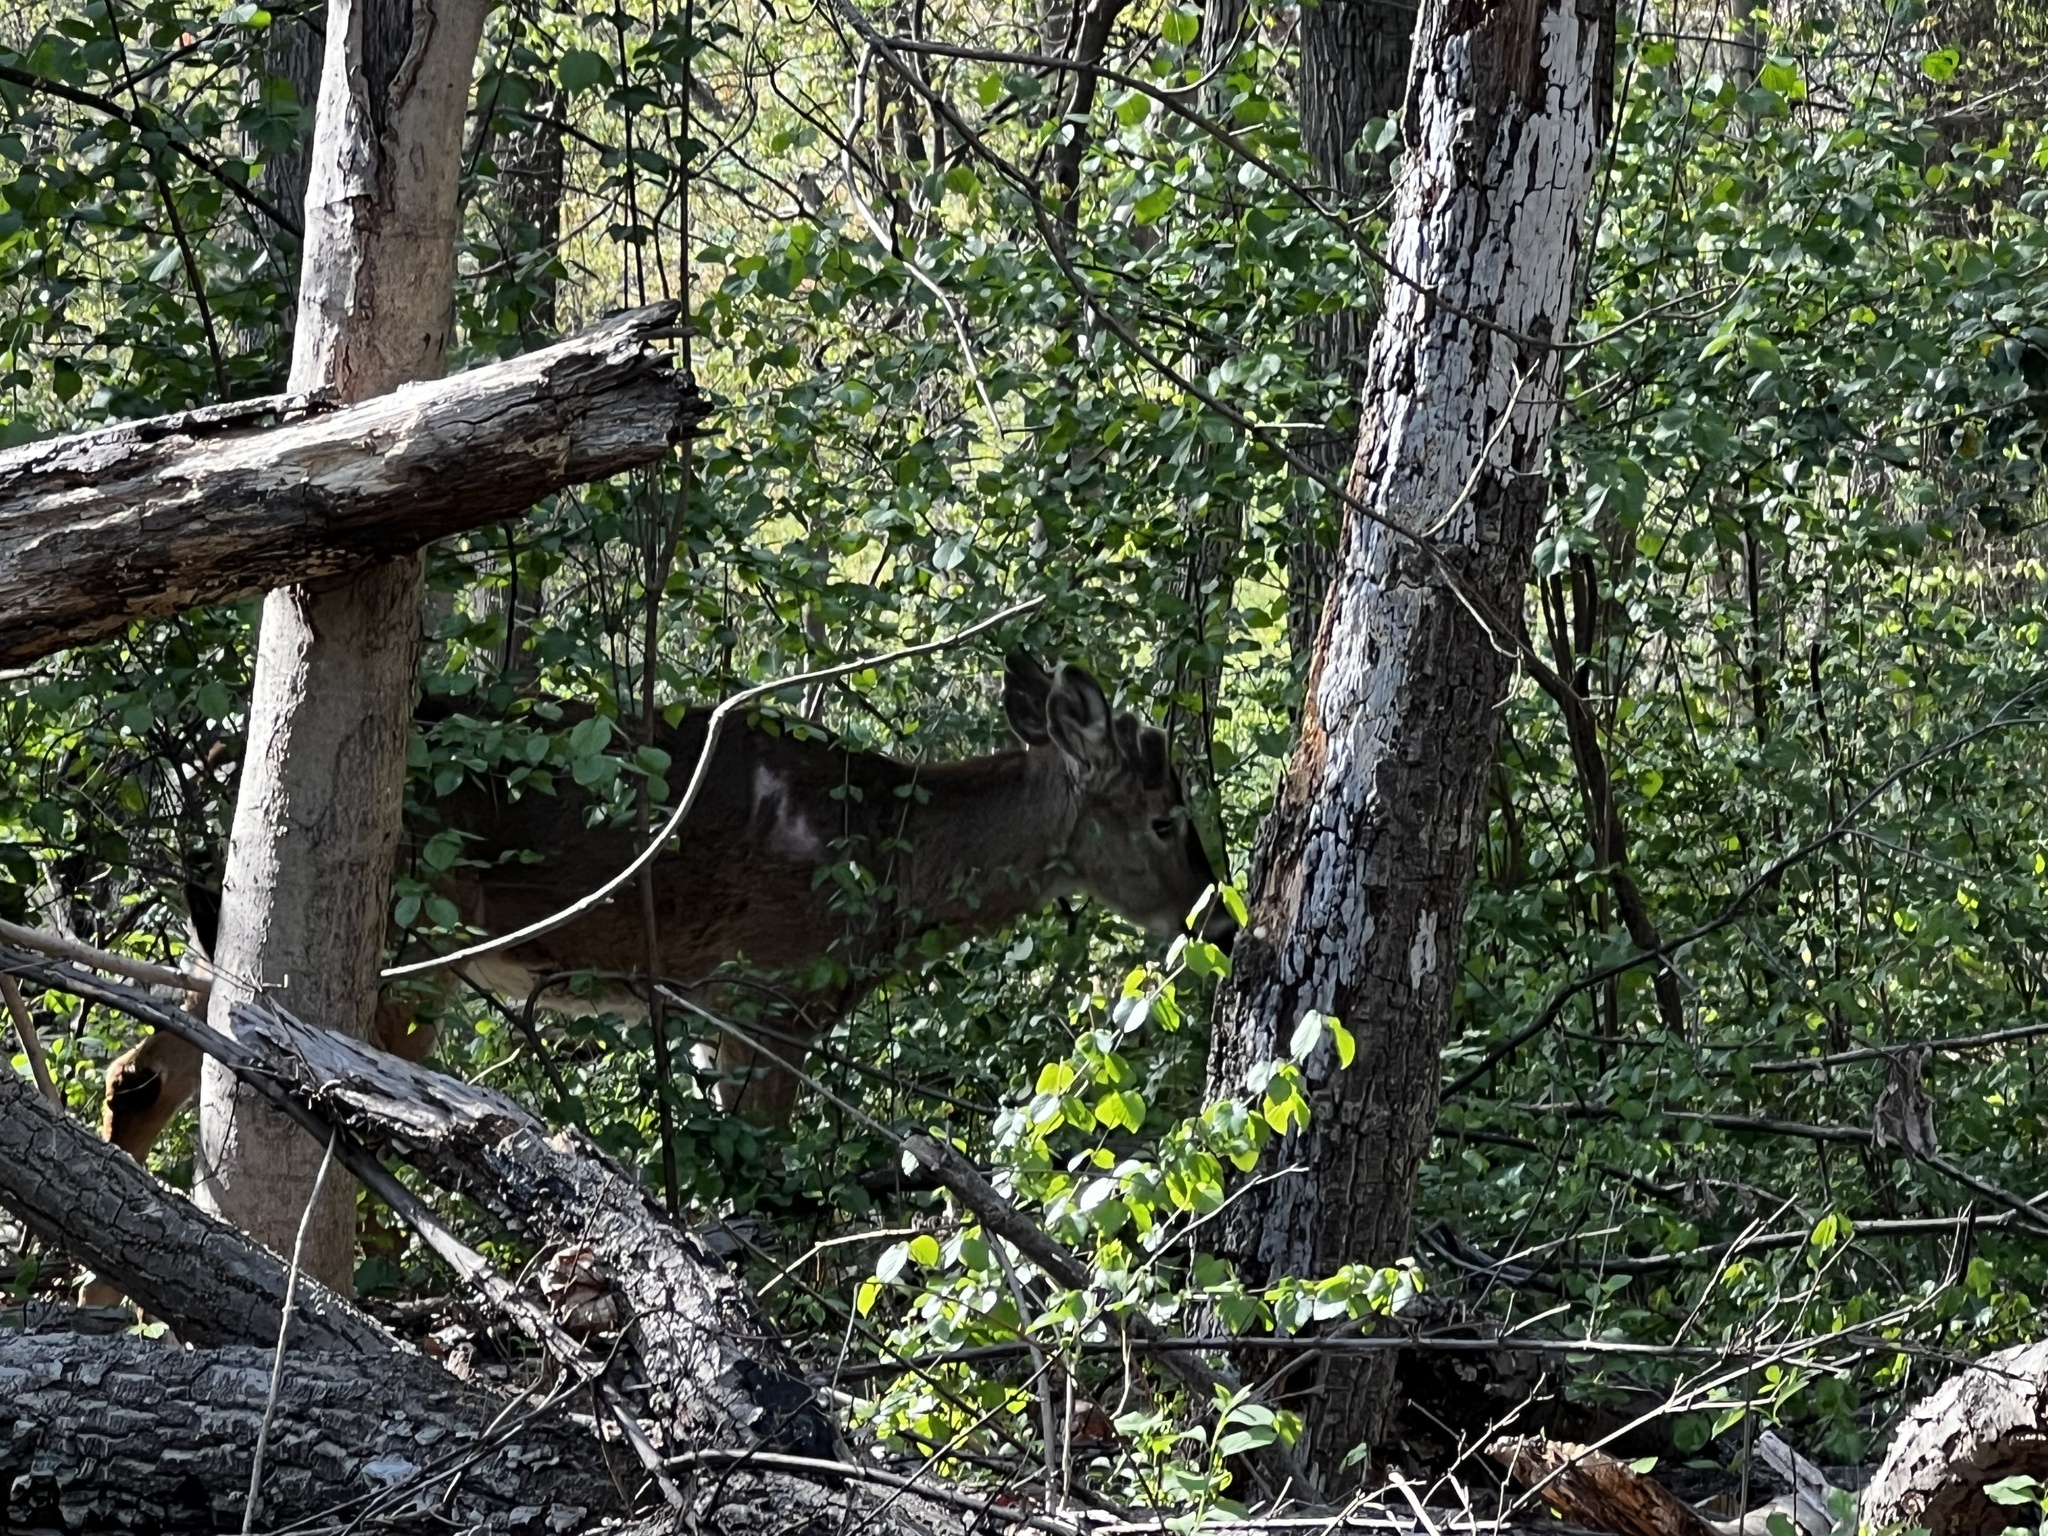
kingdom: Animalia
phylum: Chordata
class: Mammalia
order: Artiodactyla
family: Cervidae
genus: Odocoileus
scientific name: Odocoileus virginianus
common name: White-tailed deer
